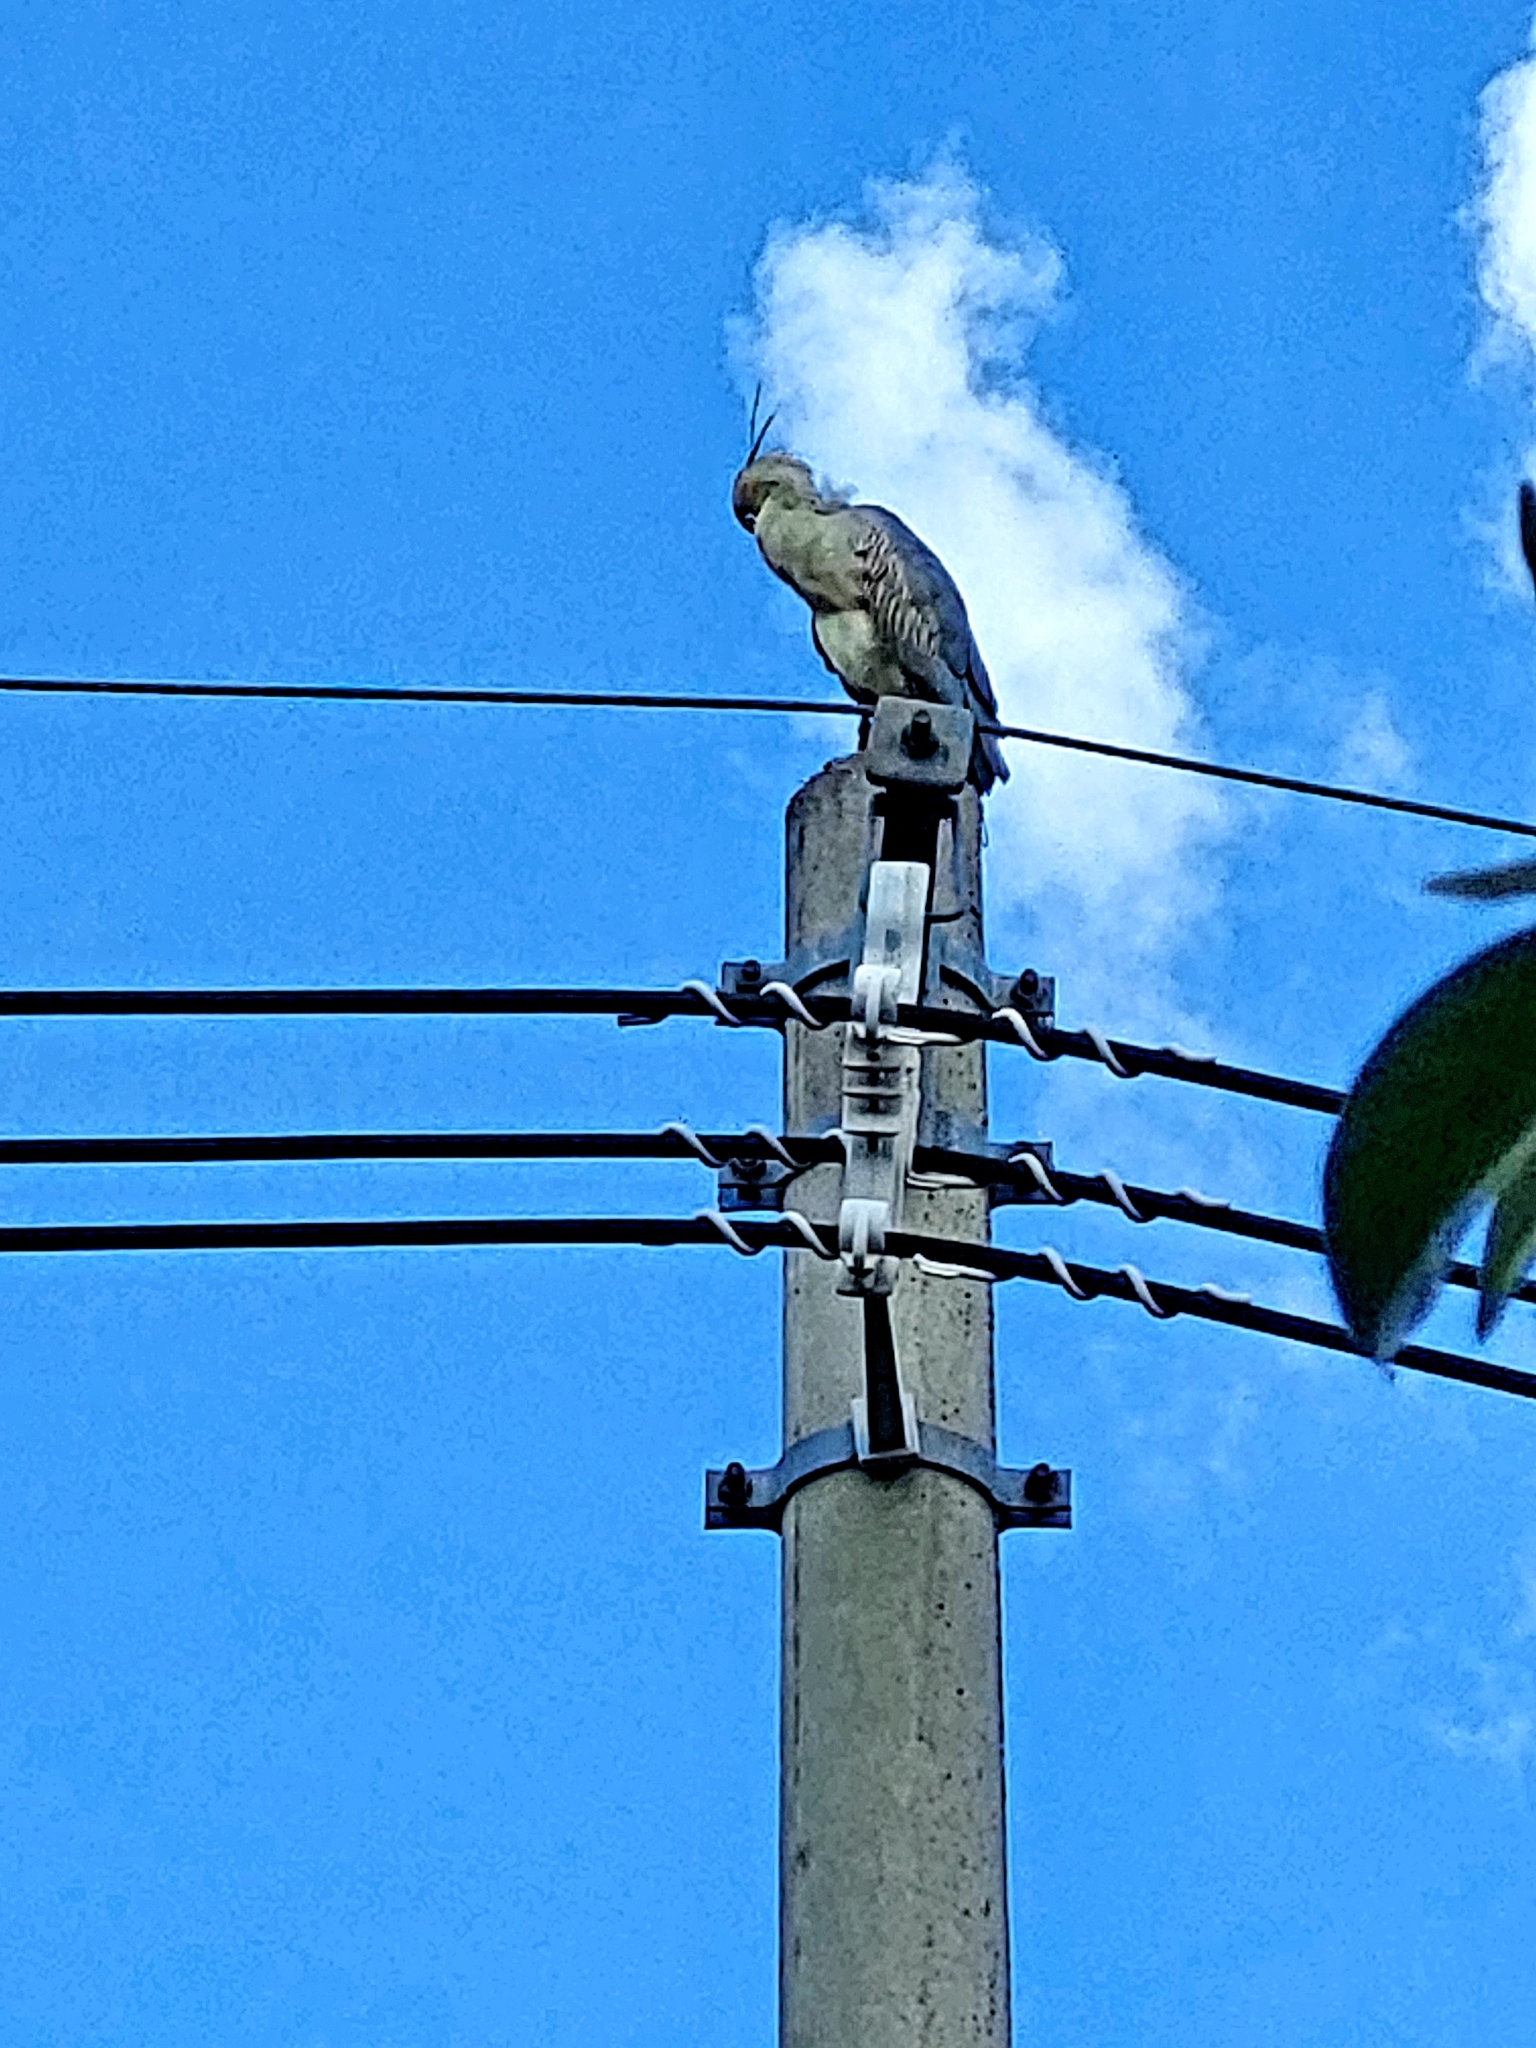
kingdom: Animalia
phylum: Chordata
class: Aves
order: Pelecaniformes
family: Ardeidae
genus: Syrigma
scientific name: Syrigma sibilatrix
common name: Whistling heron
